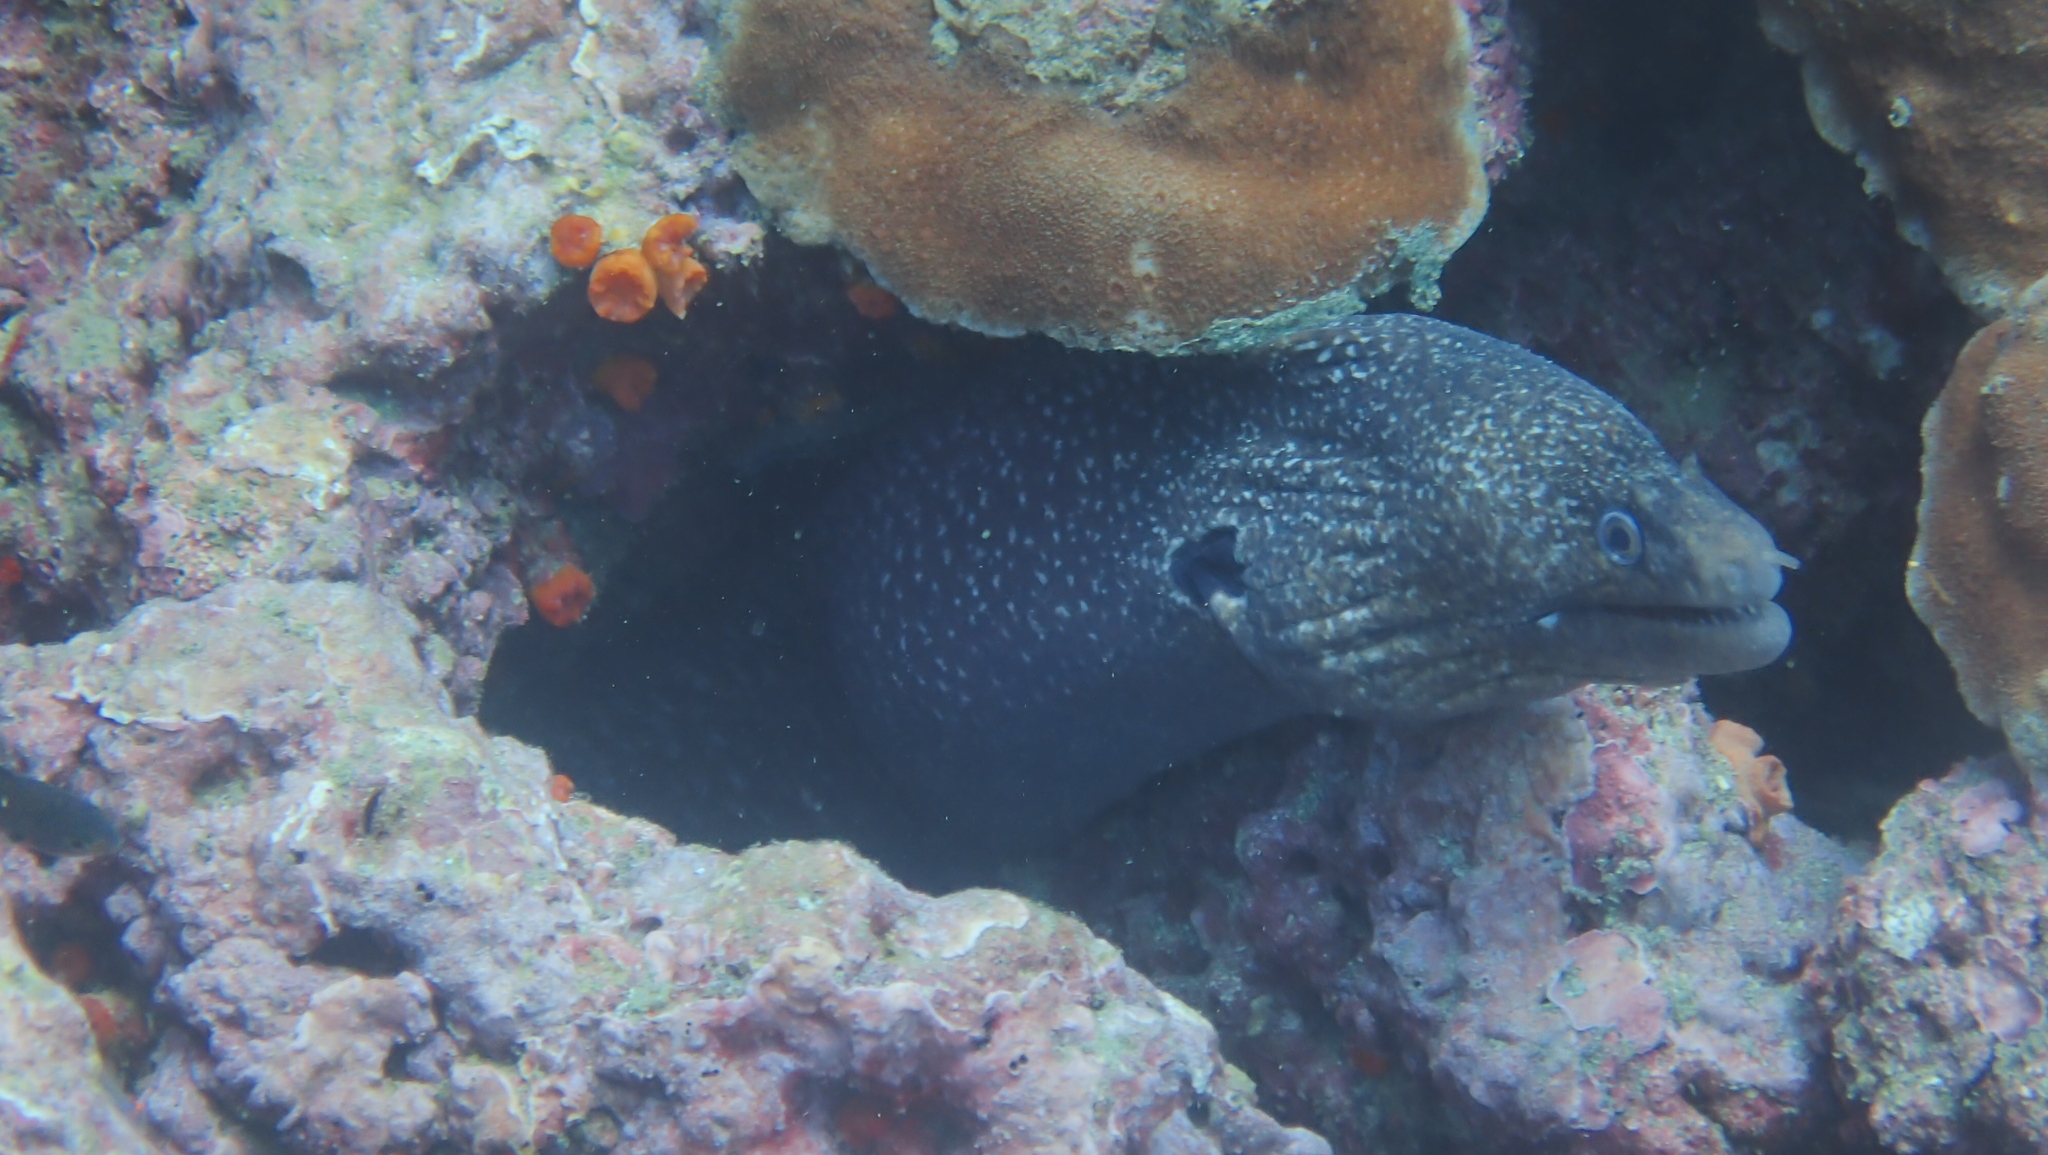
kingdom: Animalia
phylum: Chordata
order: Anguilliformes
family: Muraenidae
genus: Muraena
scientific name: Muraena clepsydra
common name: Hourglass moray
